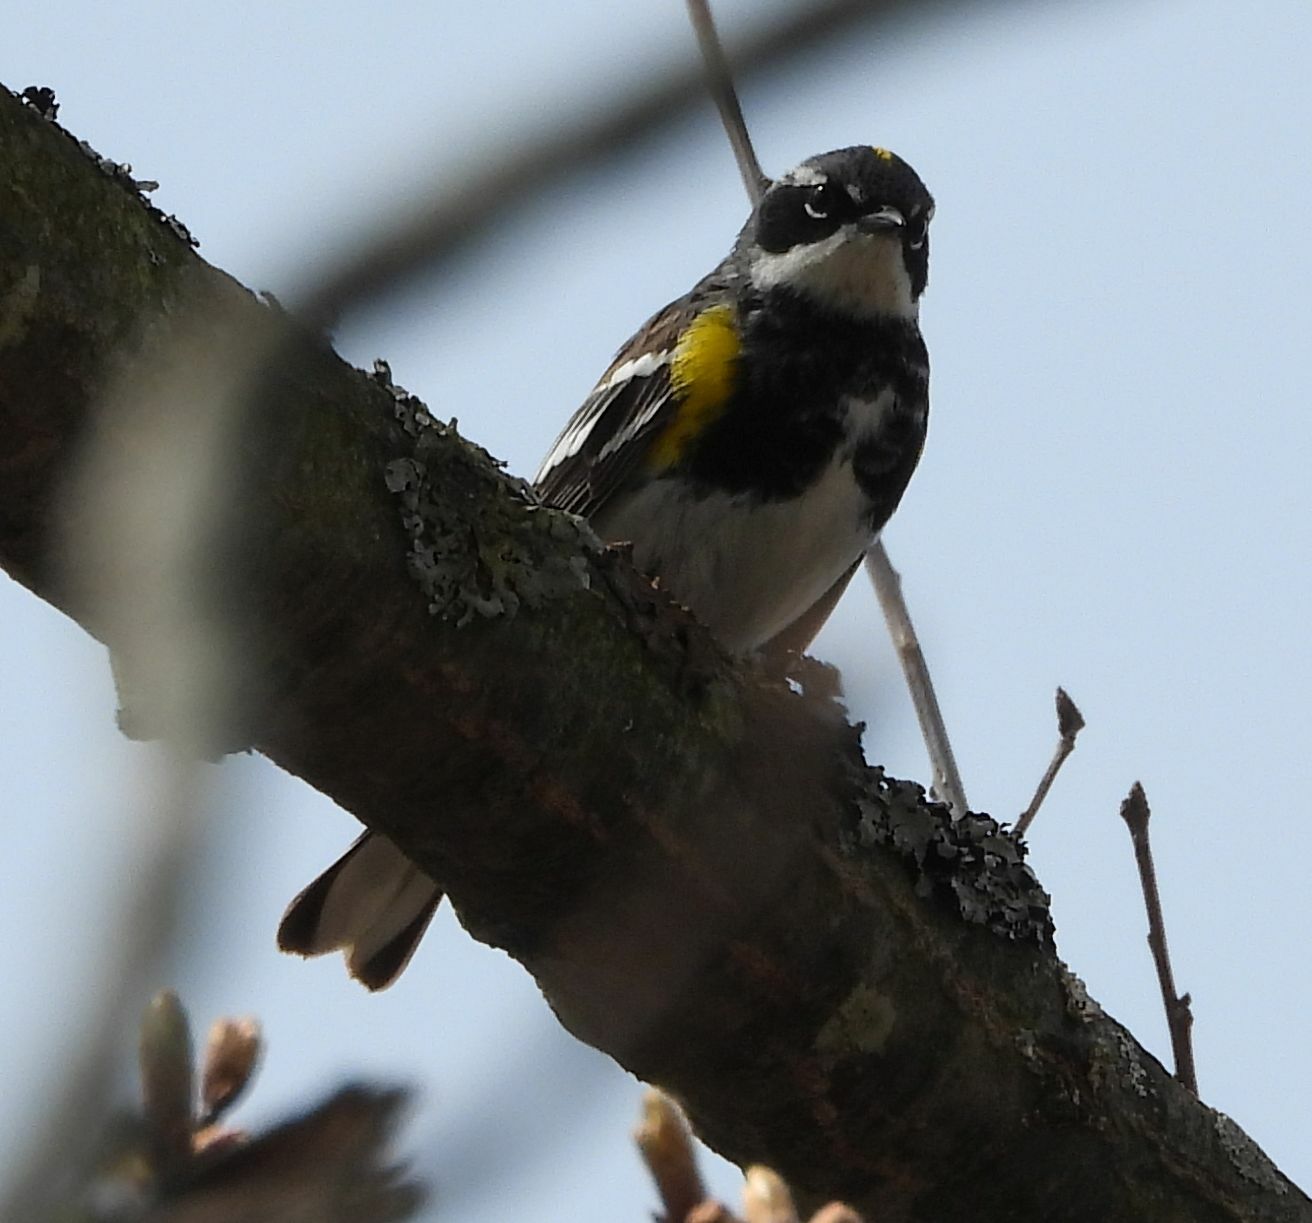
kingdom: Animalia
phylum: Chordata
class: Aves
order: Passeriformes
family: Parulidae
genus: Setophaga
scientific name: Setophaga coronata
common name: Myrtle warbler
